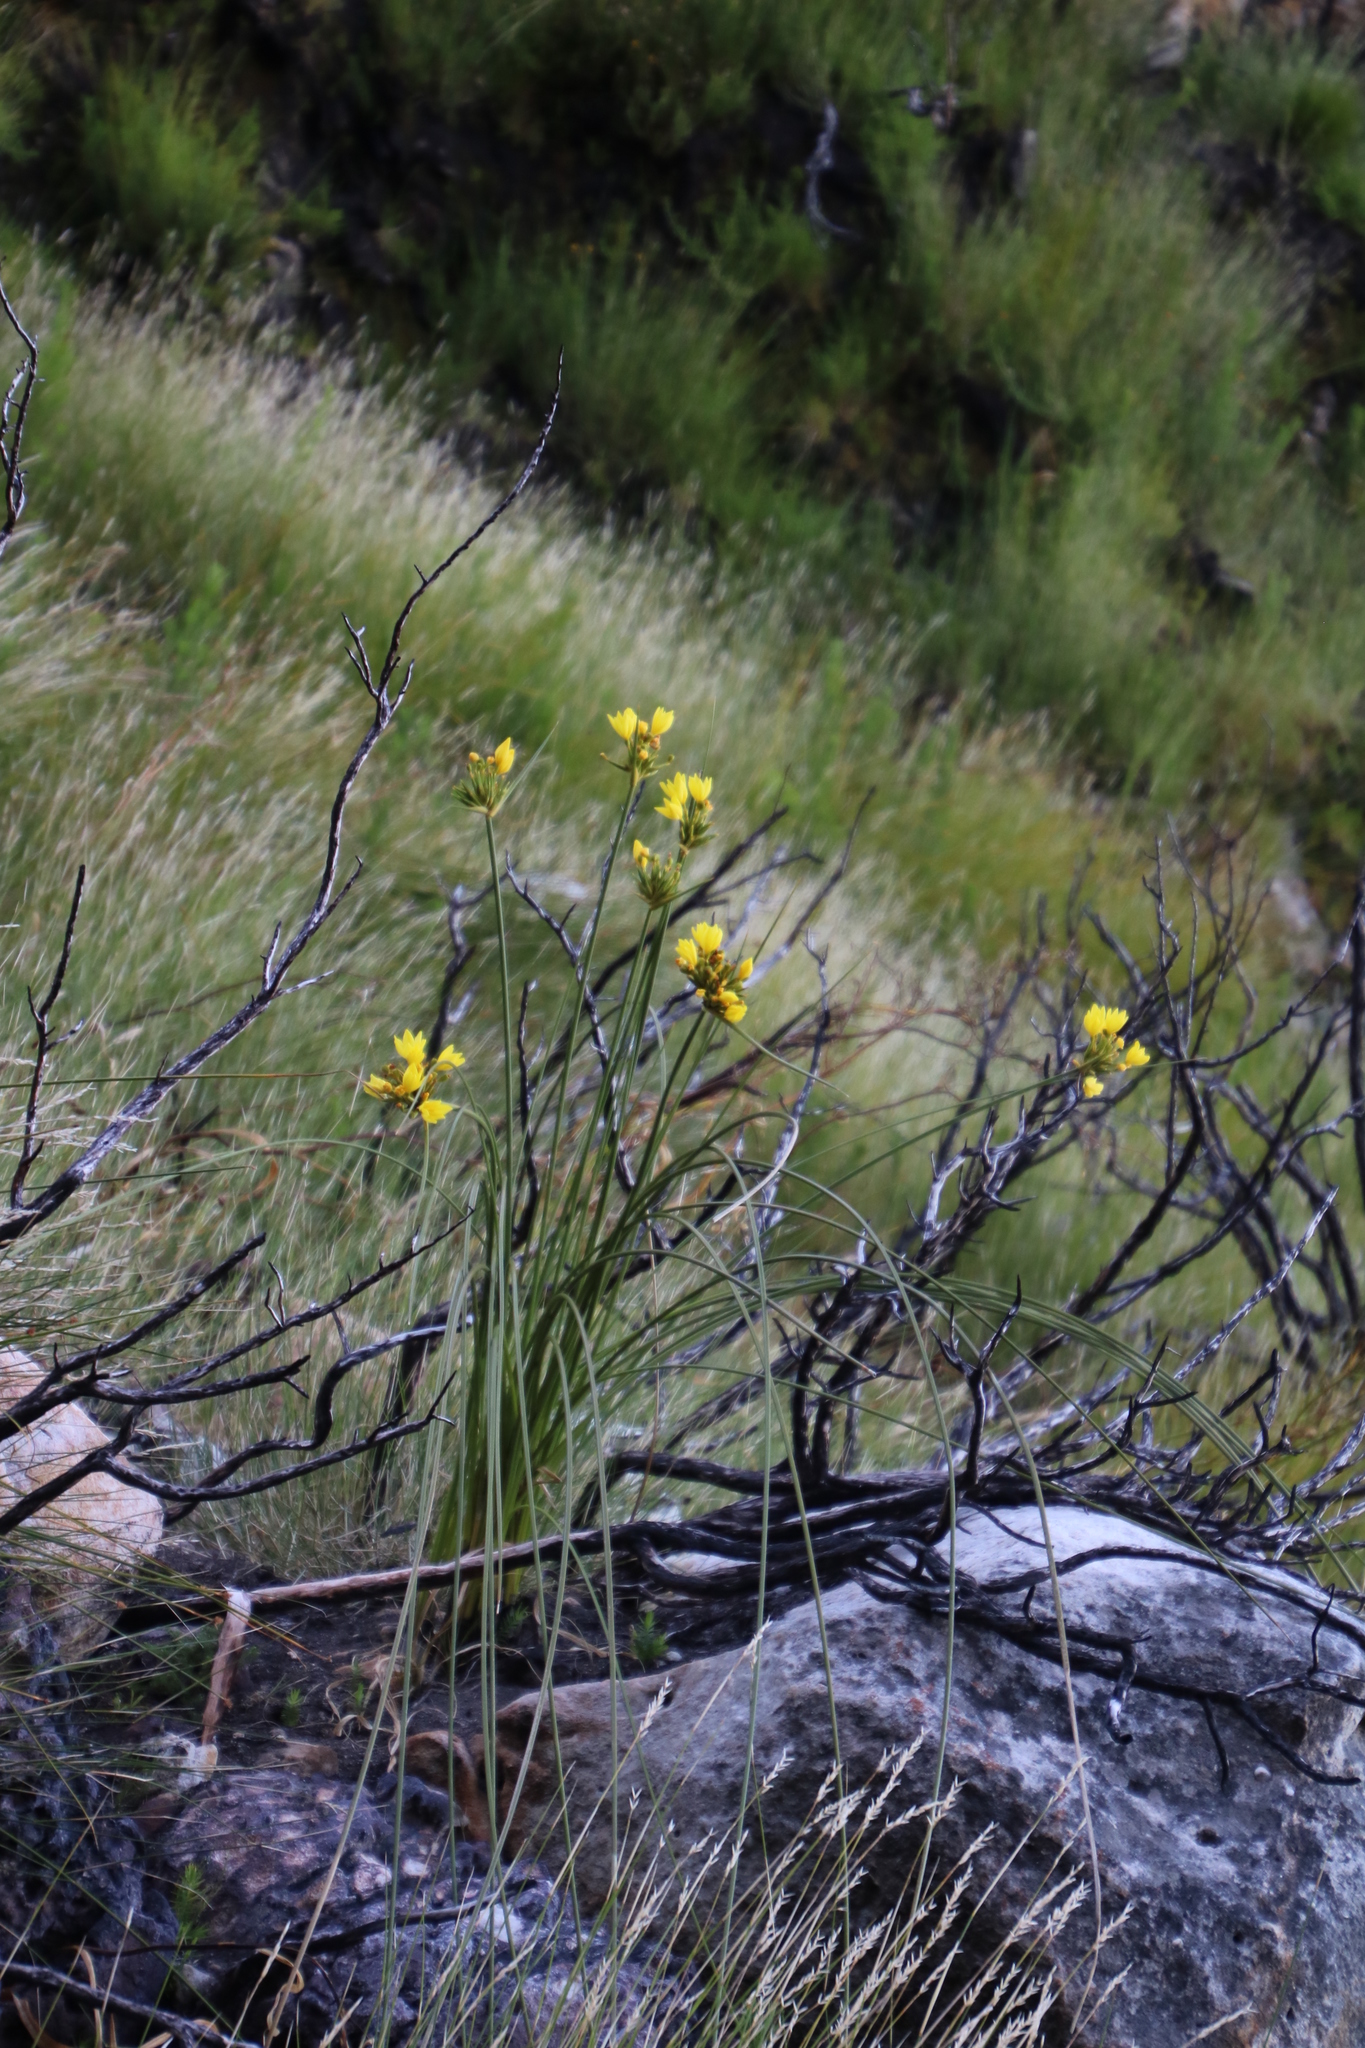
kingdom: Plantae
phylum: Tracheophyta
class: Liliopsida
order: Asparagales
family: Iridaceae
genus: Bobartia
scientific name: Bobartia indica
